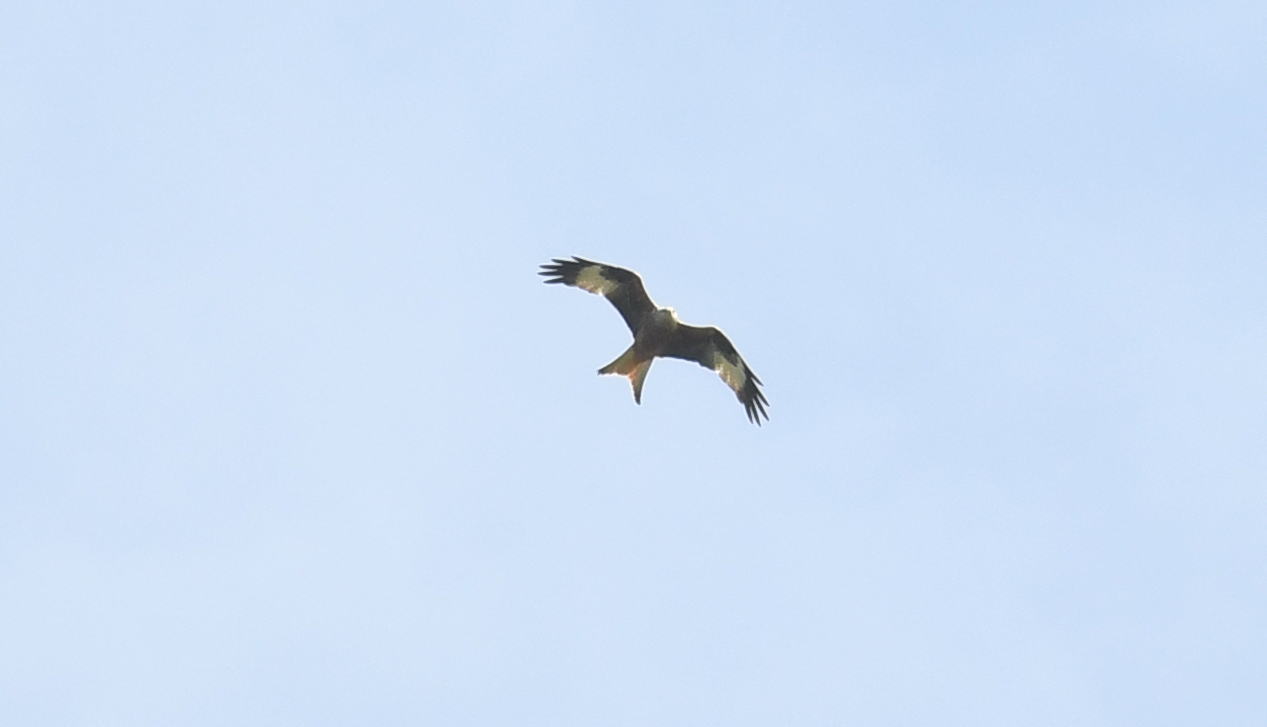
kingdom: Animalia
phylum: Chordata
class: Aves
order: Accipitriformes
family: Accipitridae
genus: Milvus
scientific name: Milvus milvus
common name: Red kite
